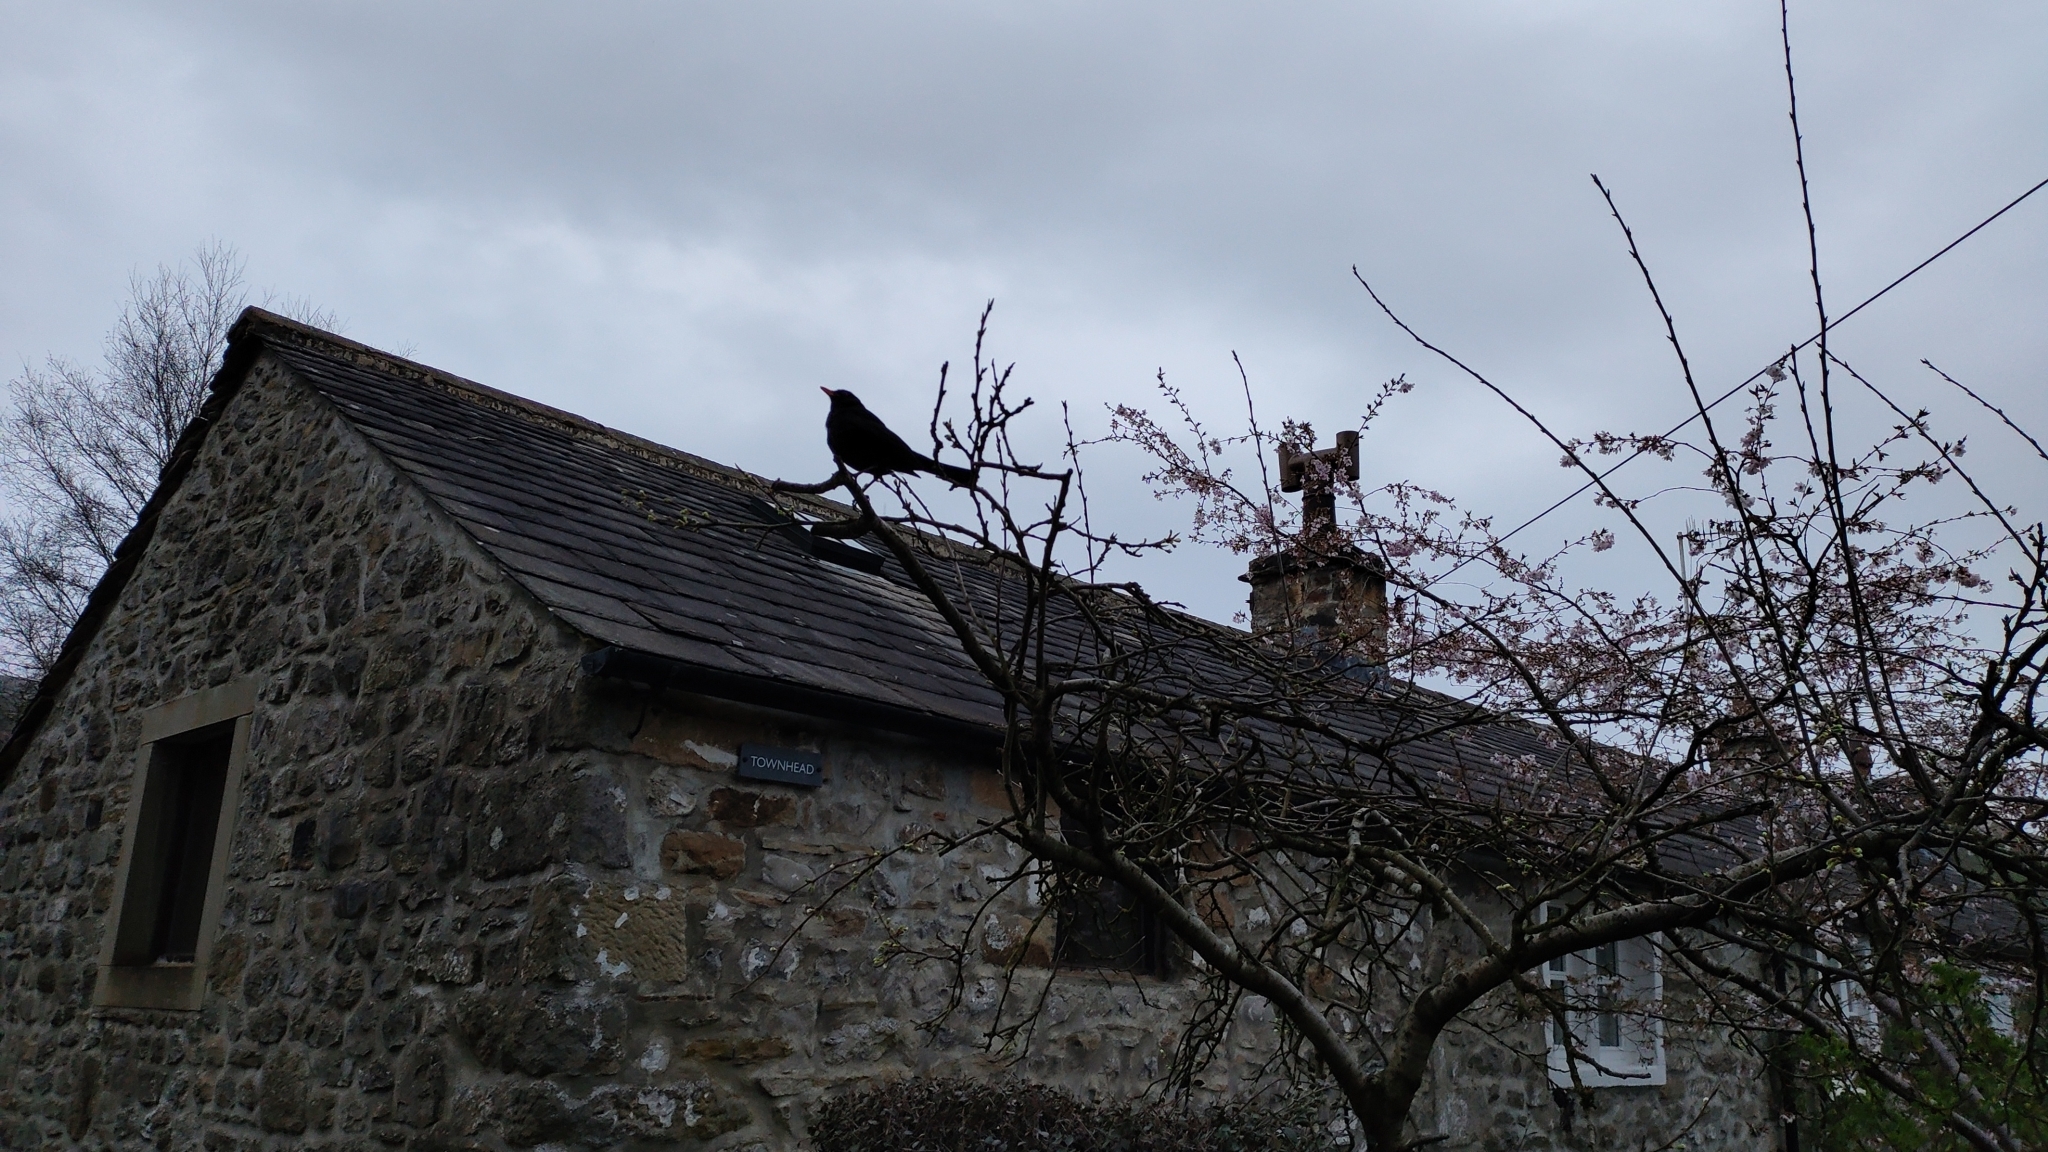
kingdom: Animalia
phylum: Chordata
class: Aves
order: Passeriformes
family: Turdidae
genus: Turdus
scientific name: Turdus merula
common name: Common blackbird
